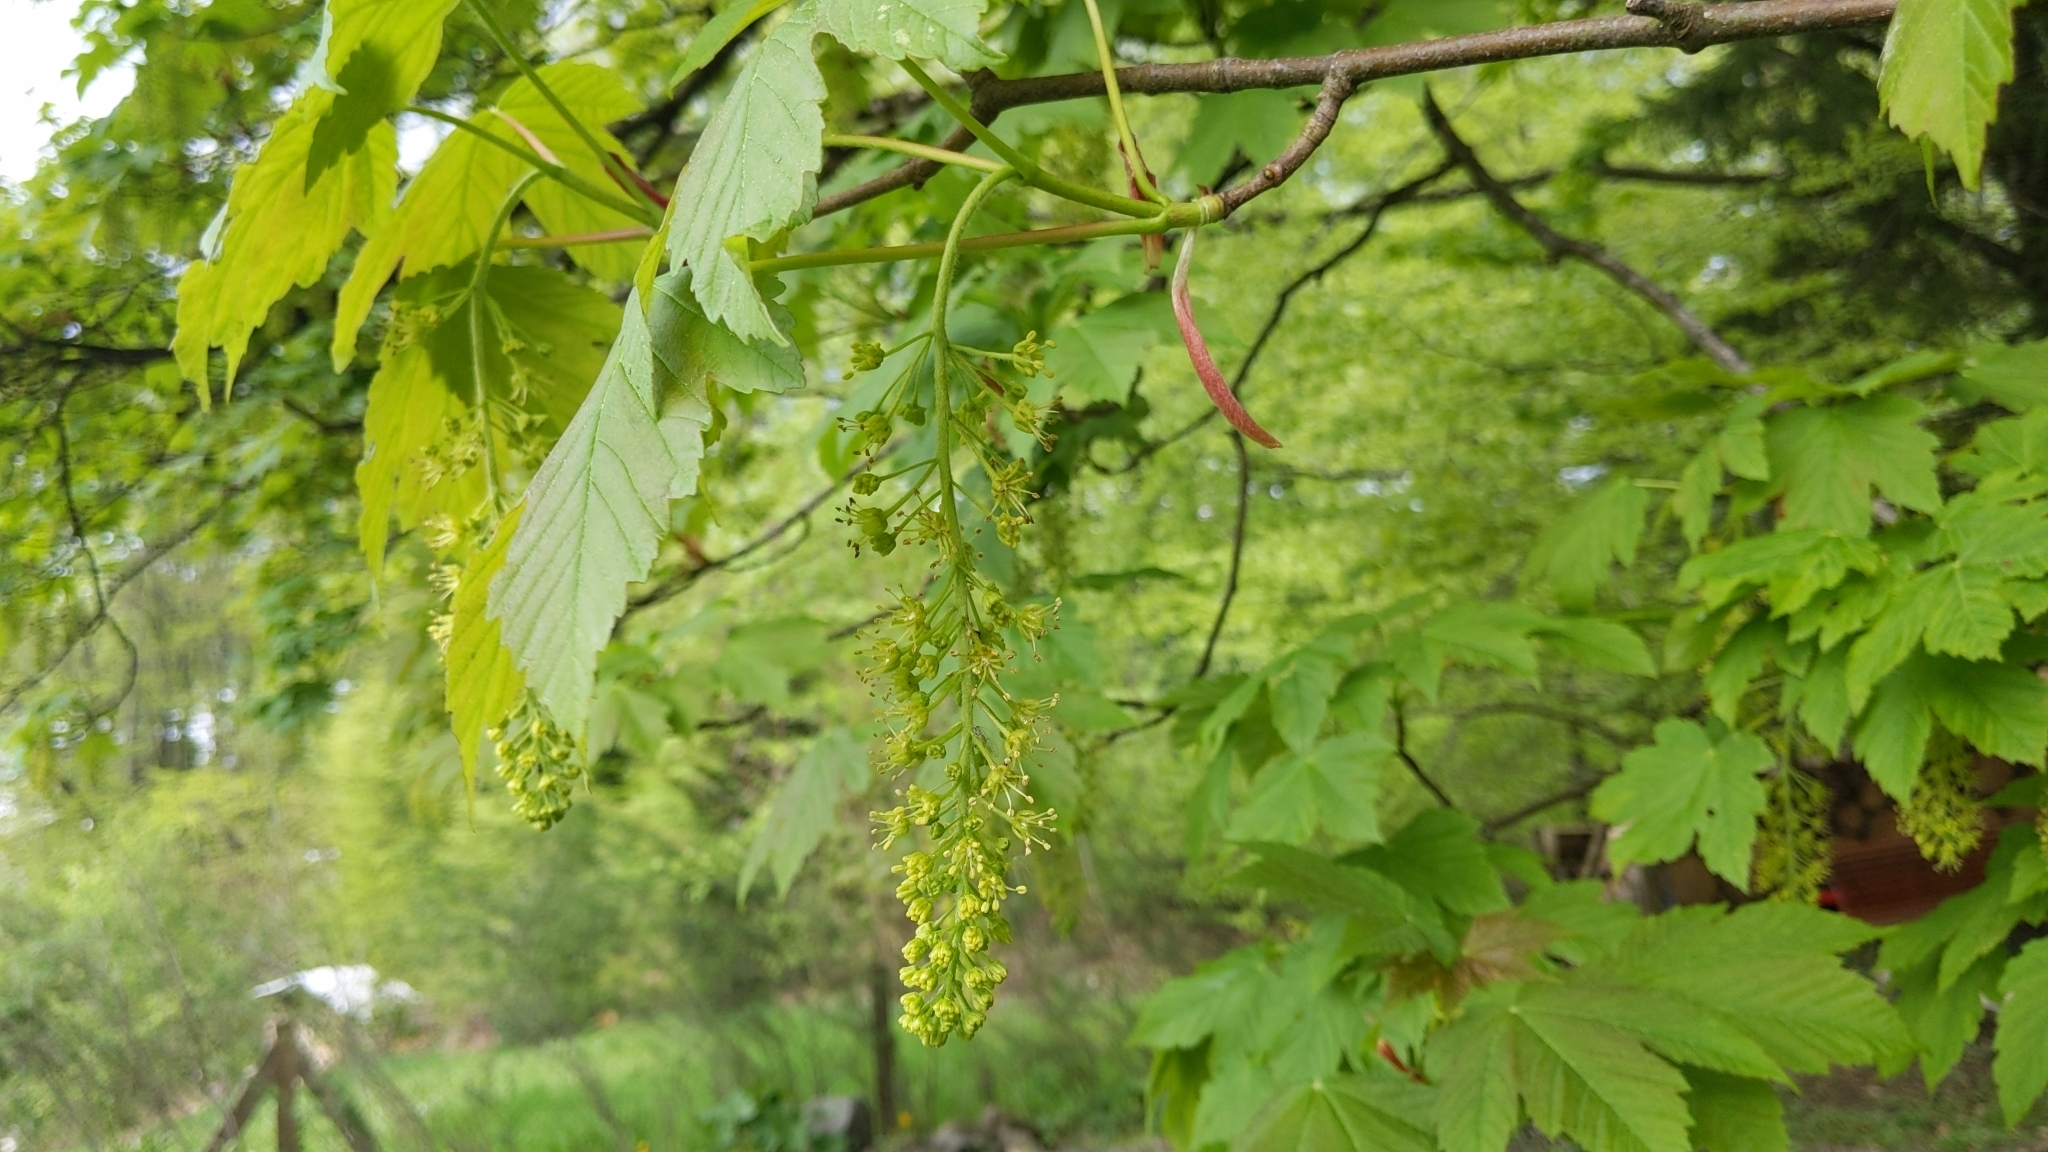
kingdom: Plantae
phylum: Tracheophyta
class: Magnoliopsida
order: Sapindales
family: Sapindaceae
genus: Acer
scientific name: Acer pseudoplatanus
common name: Sycamore
